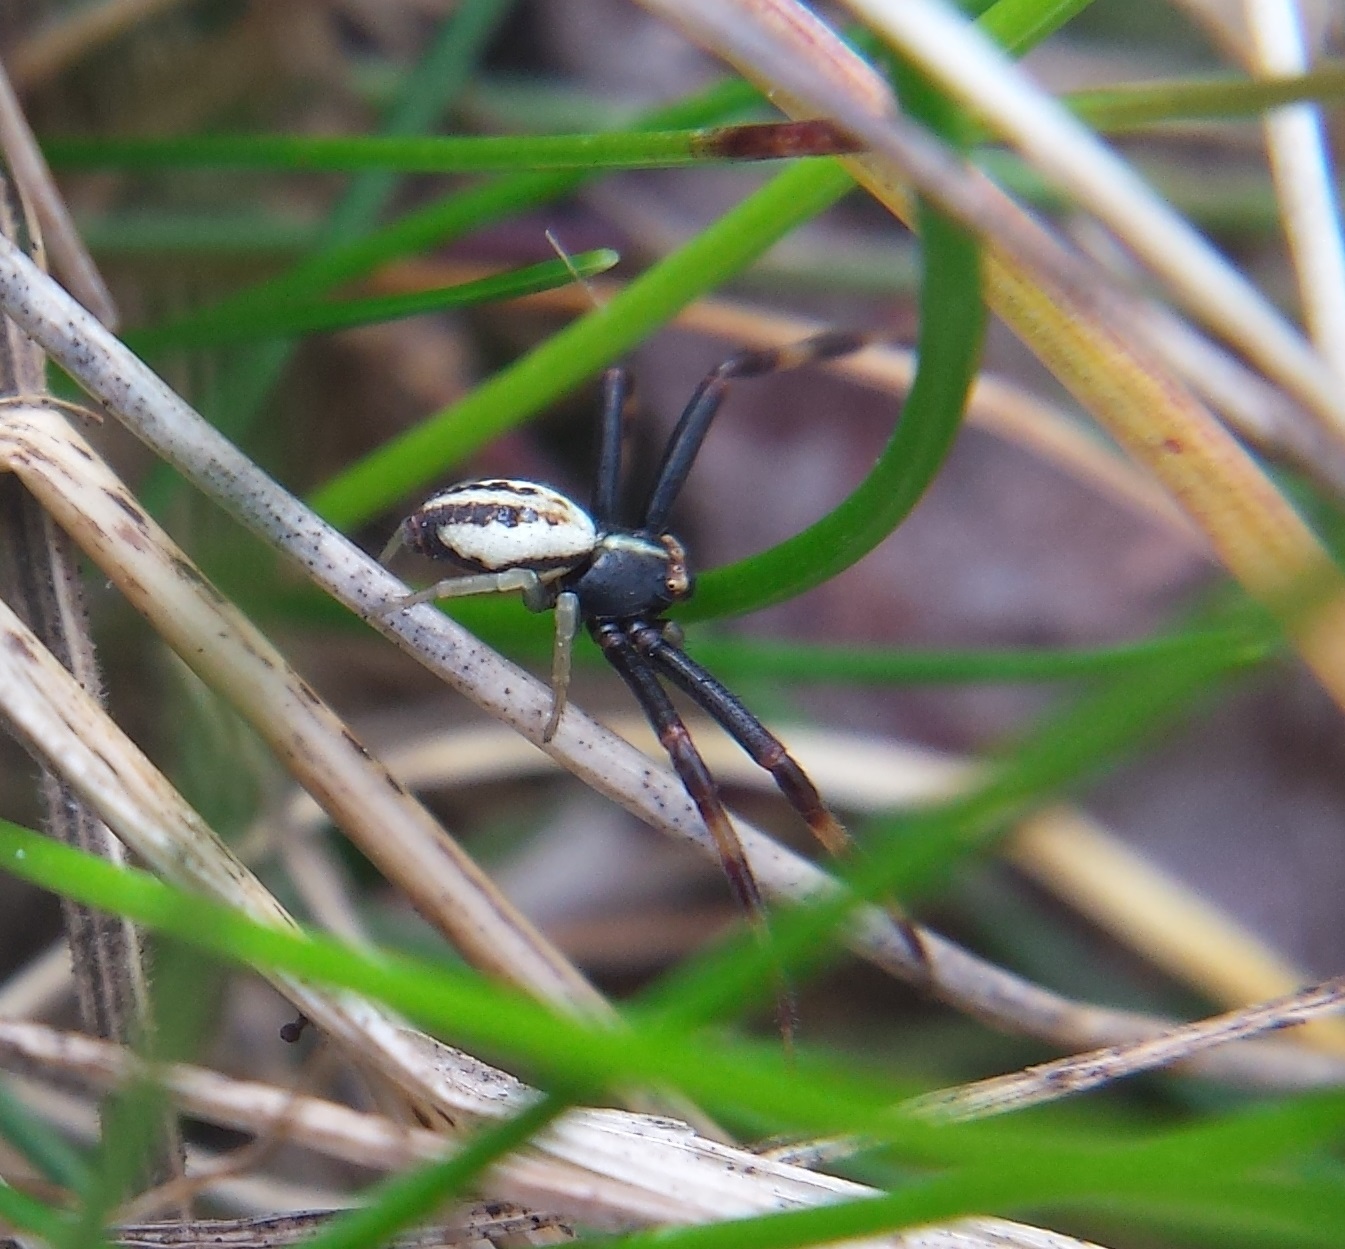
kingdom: Animalia
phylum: Arthropoda
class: Arachnida
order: Araneae
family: Thomisidae
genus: Misumena
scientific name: Misumena vatia
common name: Goldenrod crab spider
